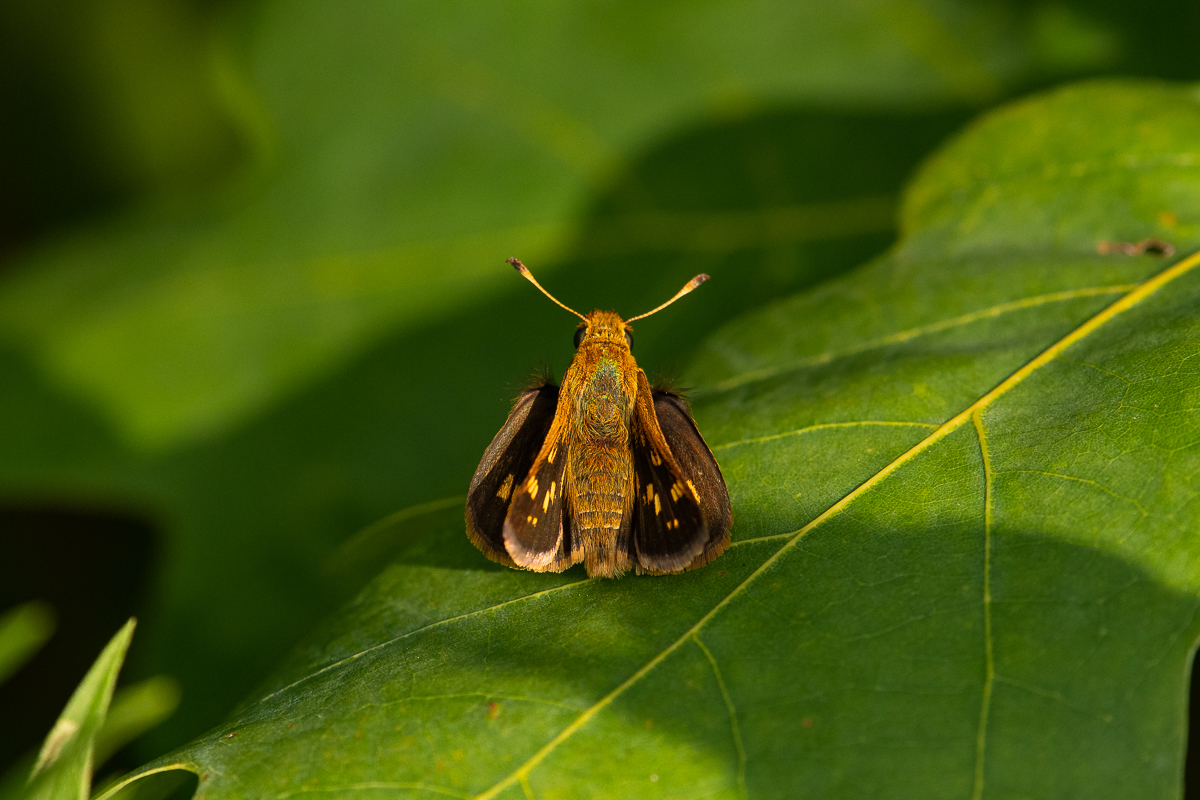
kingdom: Animalia
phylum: Arthropoda
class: Insecta
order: Lepidoptera
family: Hesperiidae
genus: Polites
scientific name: Polites coras
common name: Peck's skipper
